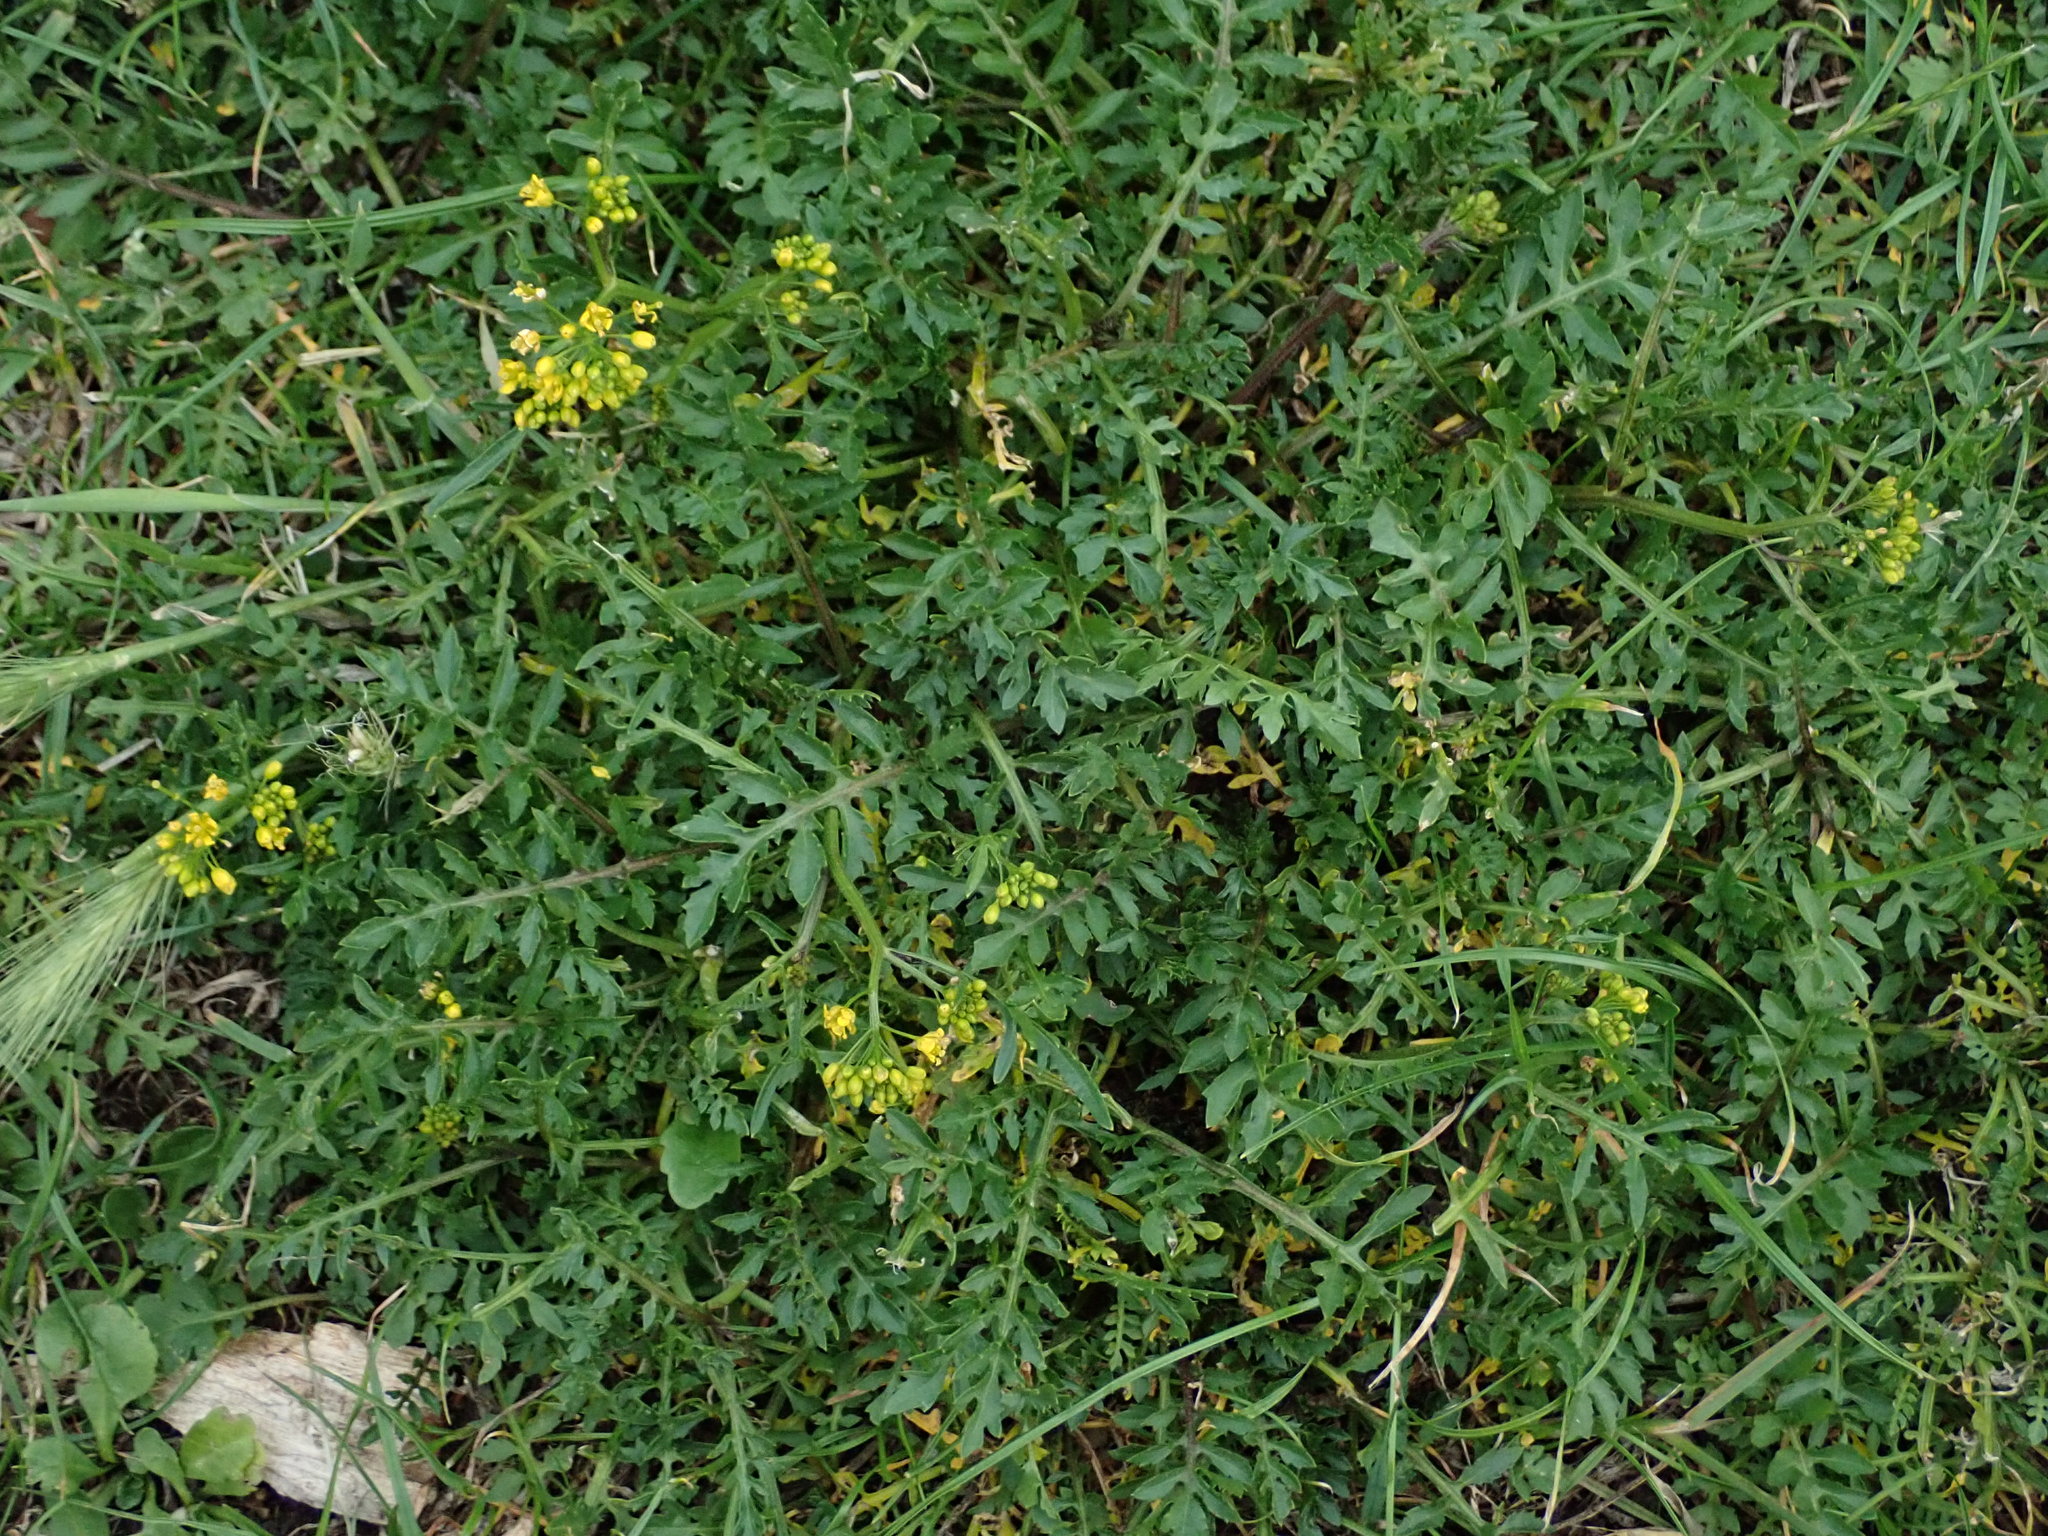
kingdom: Plantae
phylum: Tracheophyta
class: Magnoliopsida
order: Brassicales
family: Brassicaceae
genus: Rorippa
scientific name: Rorippa sylvestris
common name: Creeping yellowcress
